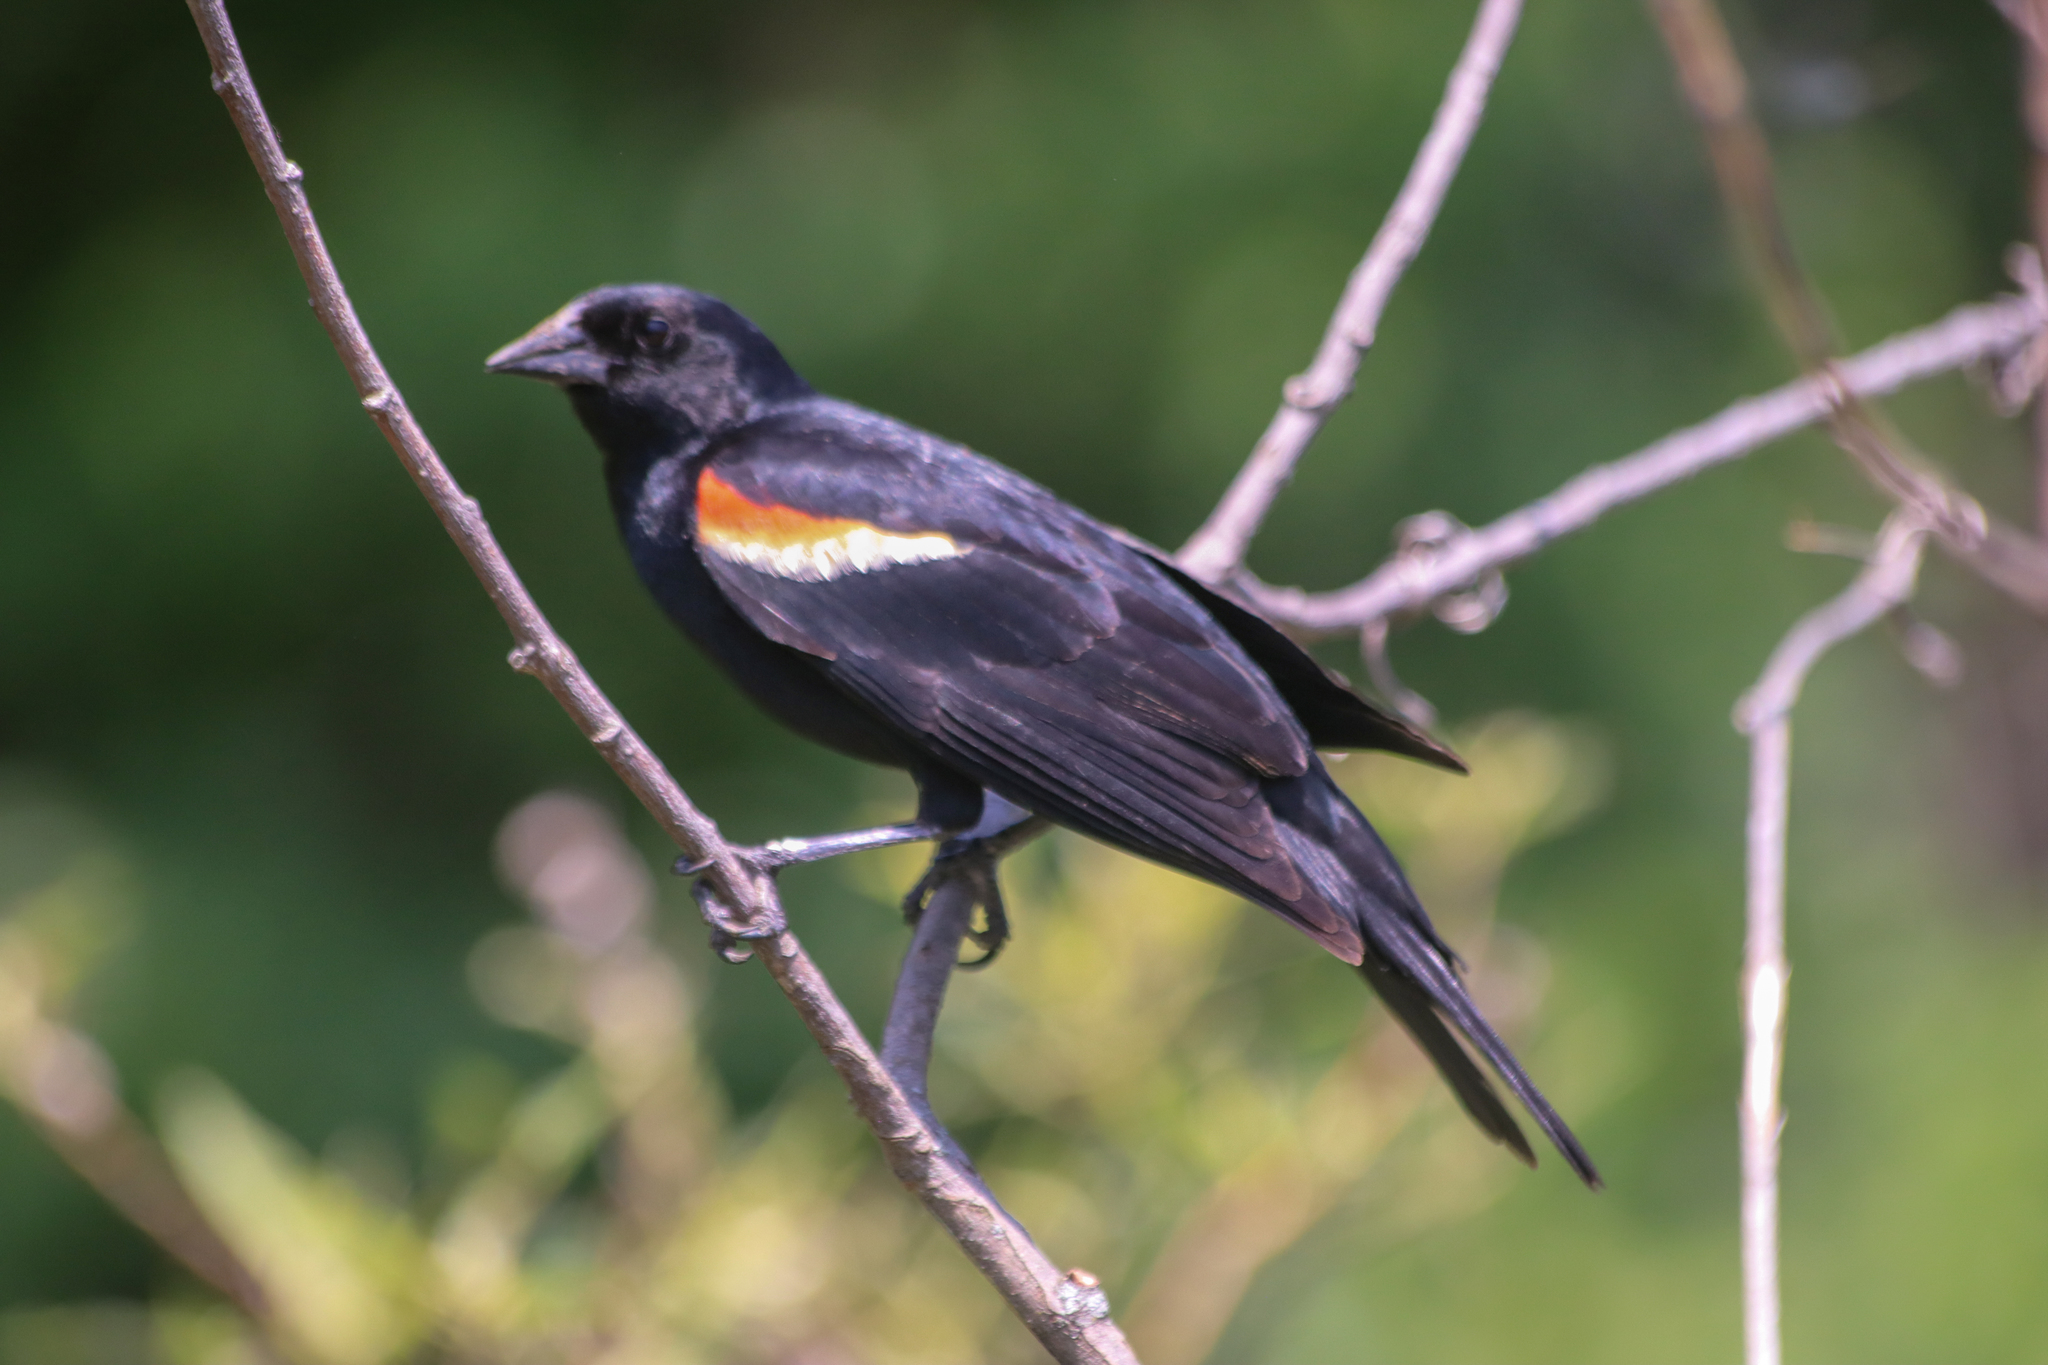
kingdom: Animalia
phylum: Chordata
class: Aves
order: Passeriformes
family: Icteridae
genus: Agelaius
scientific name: Agelaius phoeniceus
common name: Red-winged blackbird
